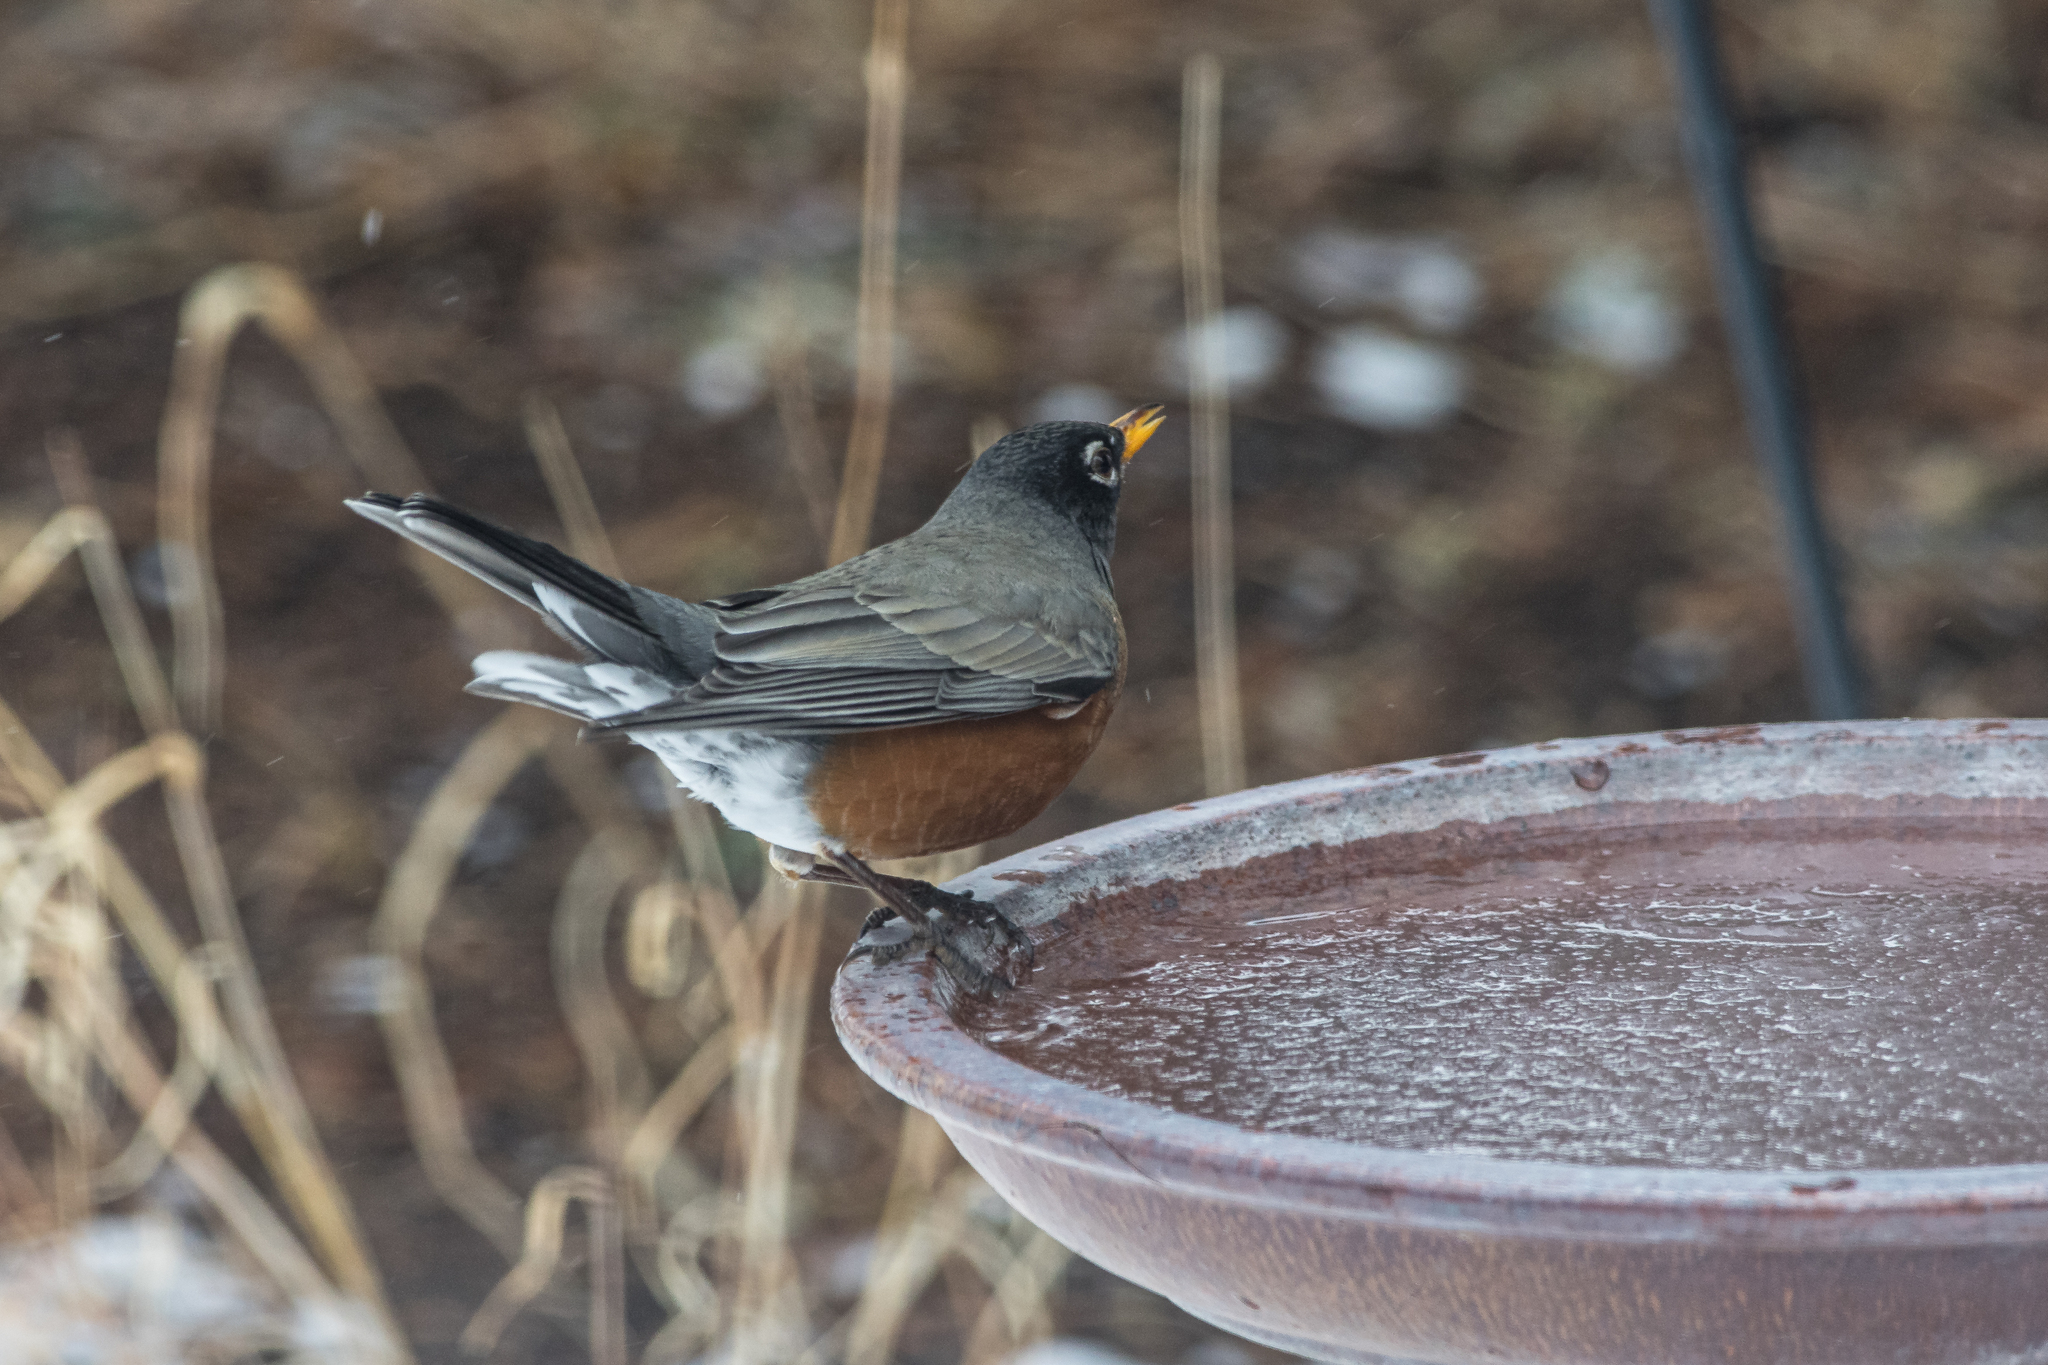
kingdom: Animalia
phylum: Chordata
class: Aves
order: Passeriformes
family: Turdidae
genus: Turdus
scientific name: Turdus migratorius
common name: American robin
